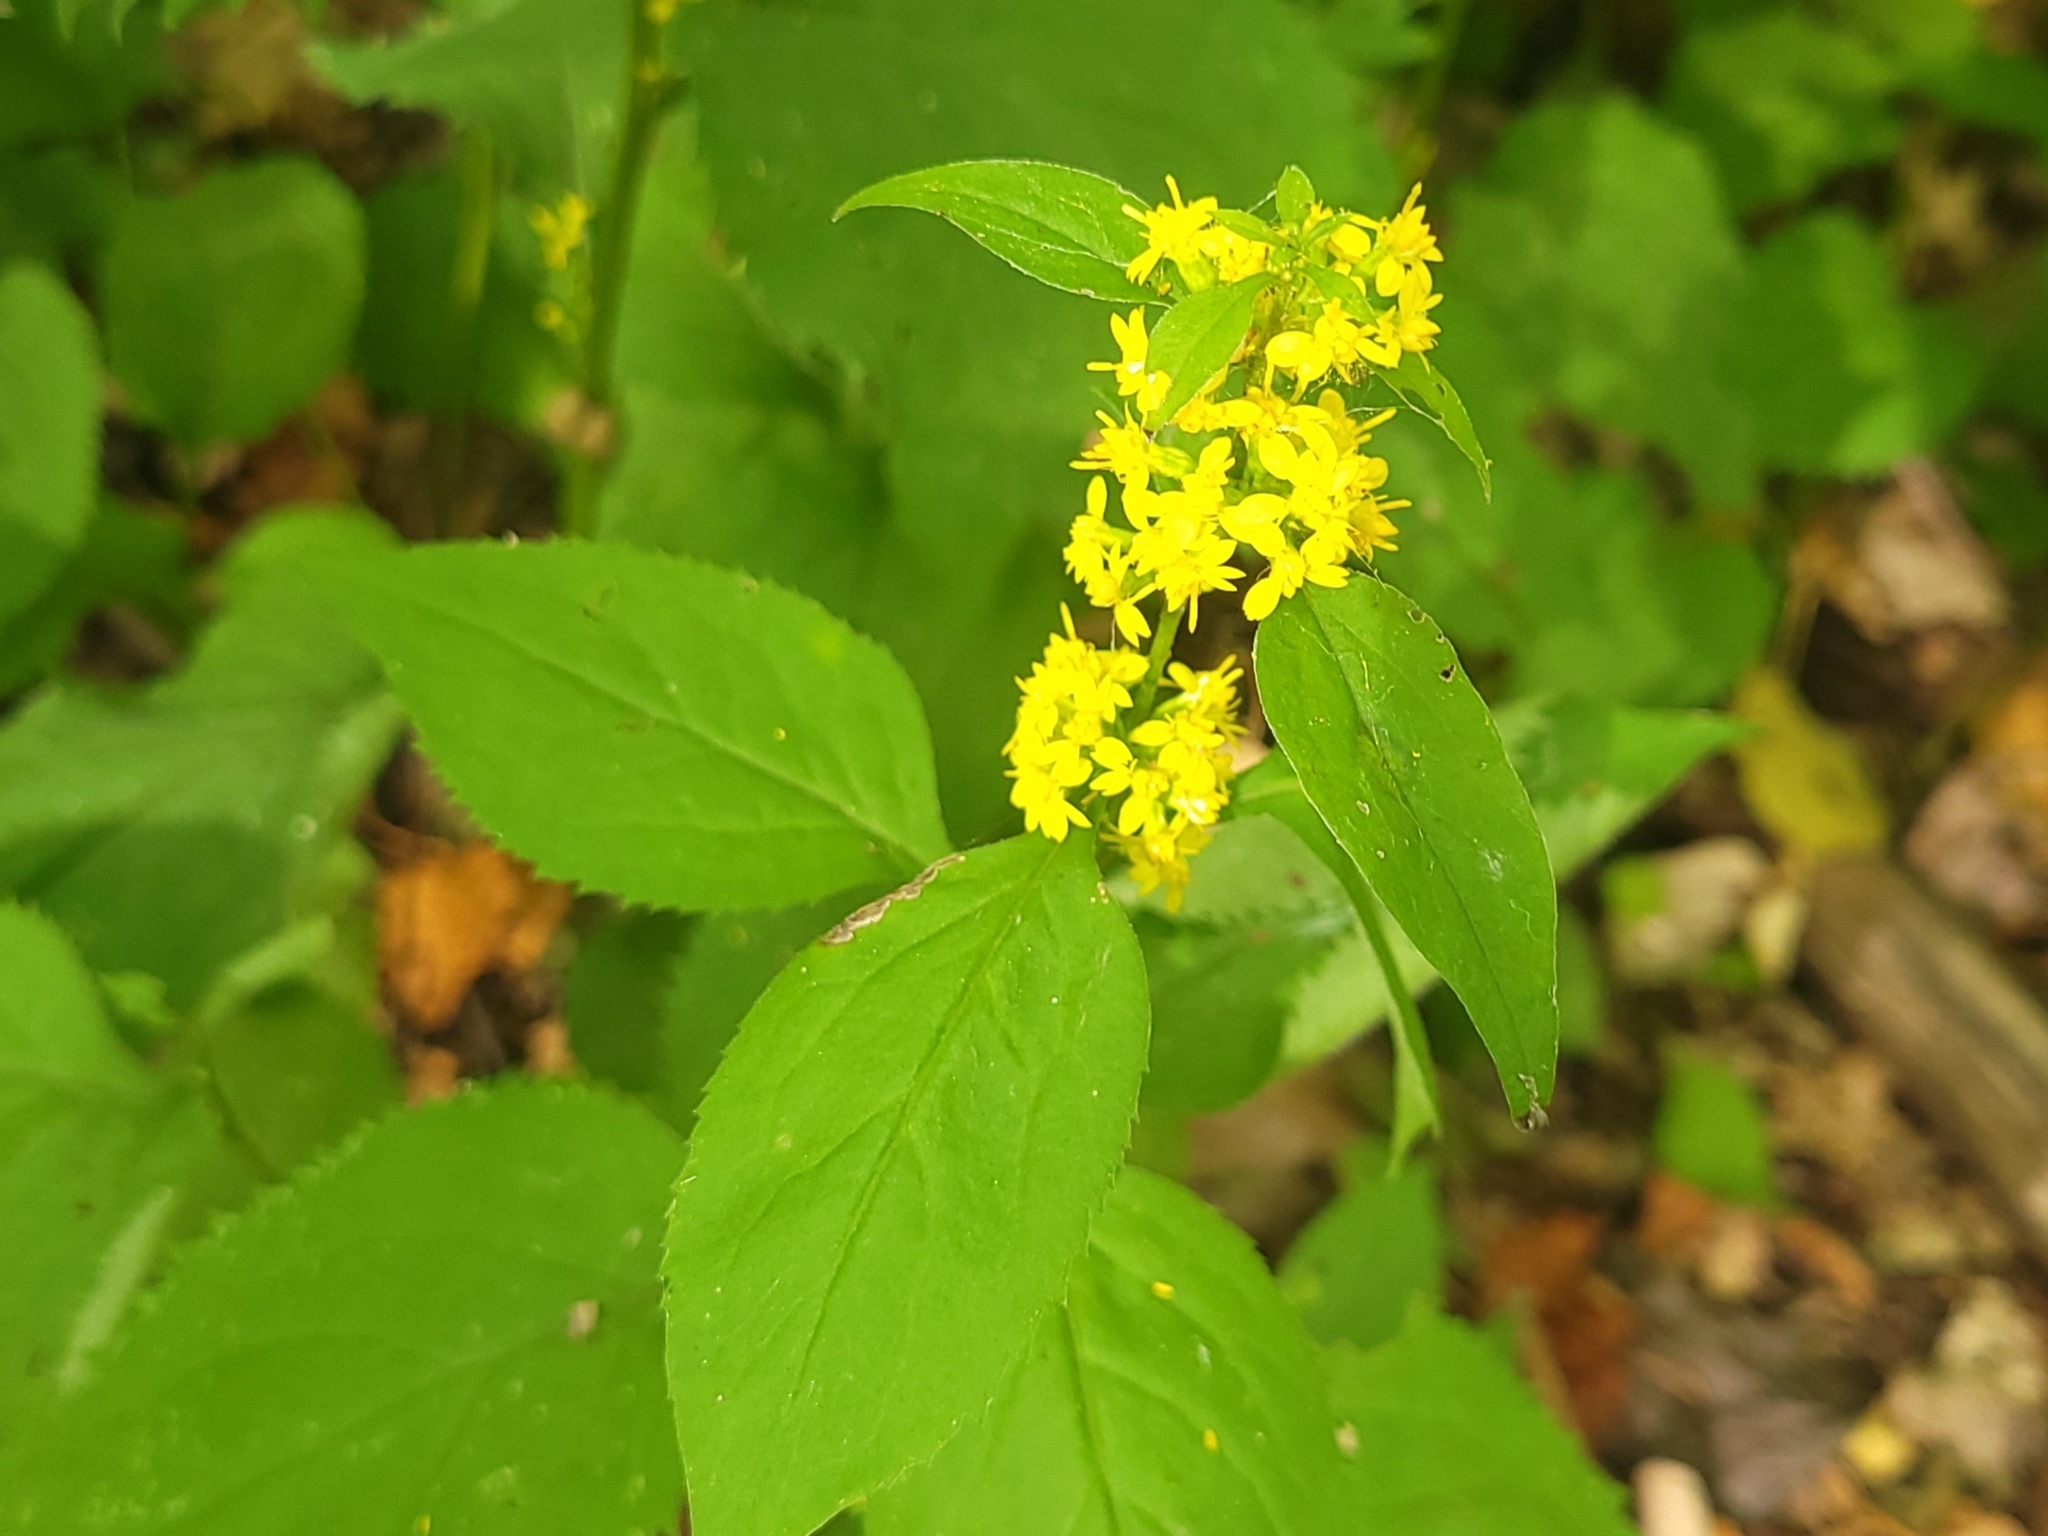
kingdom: Plantae
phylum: Tracheophyta
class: Magnoliopsida
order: Asterales
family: Asteraceae
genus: Solidago
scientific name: Solidago flexicaulis
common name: Zig-zag goldenrod
